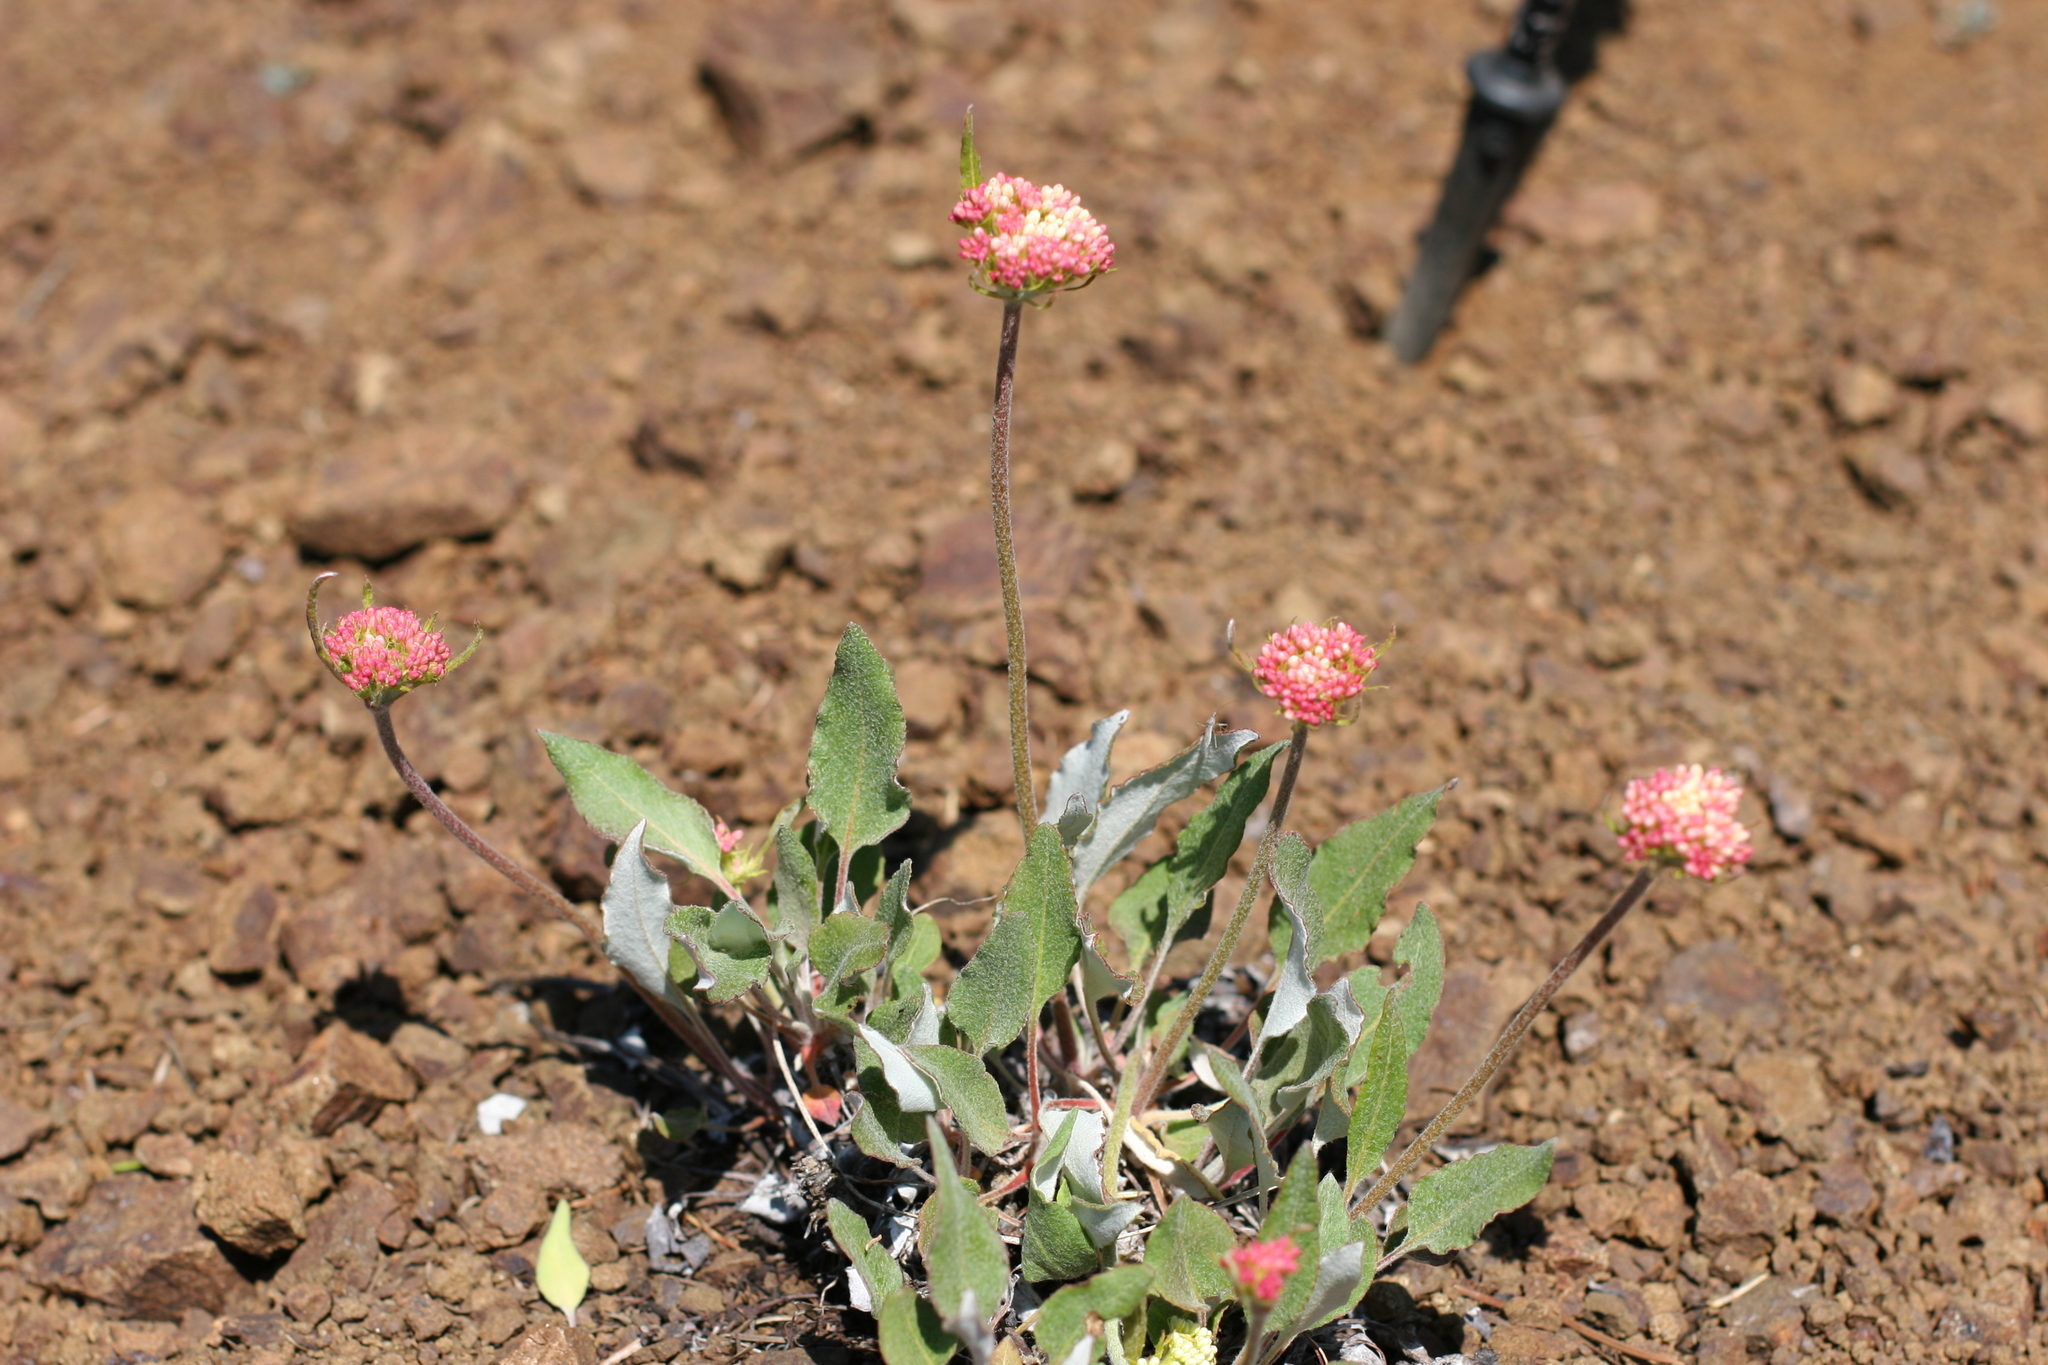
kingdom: Plantae
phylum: Tracheophyta
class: Magnoliopsida
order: Caryophyllales
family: Polygonaceae
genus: Eriogonum
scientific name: Eriogonum compositum
